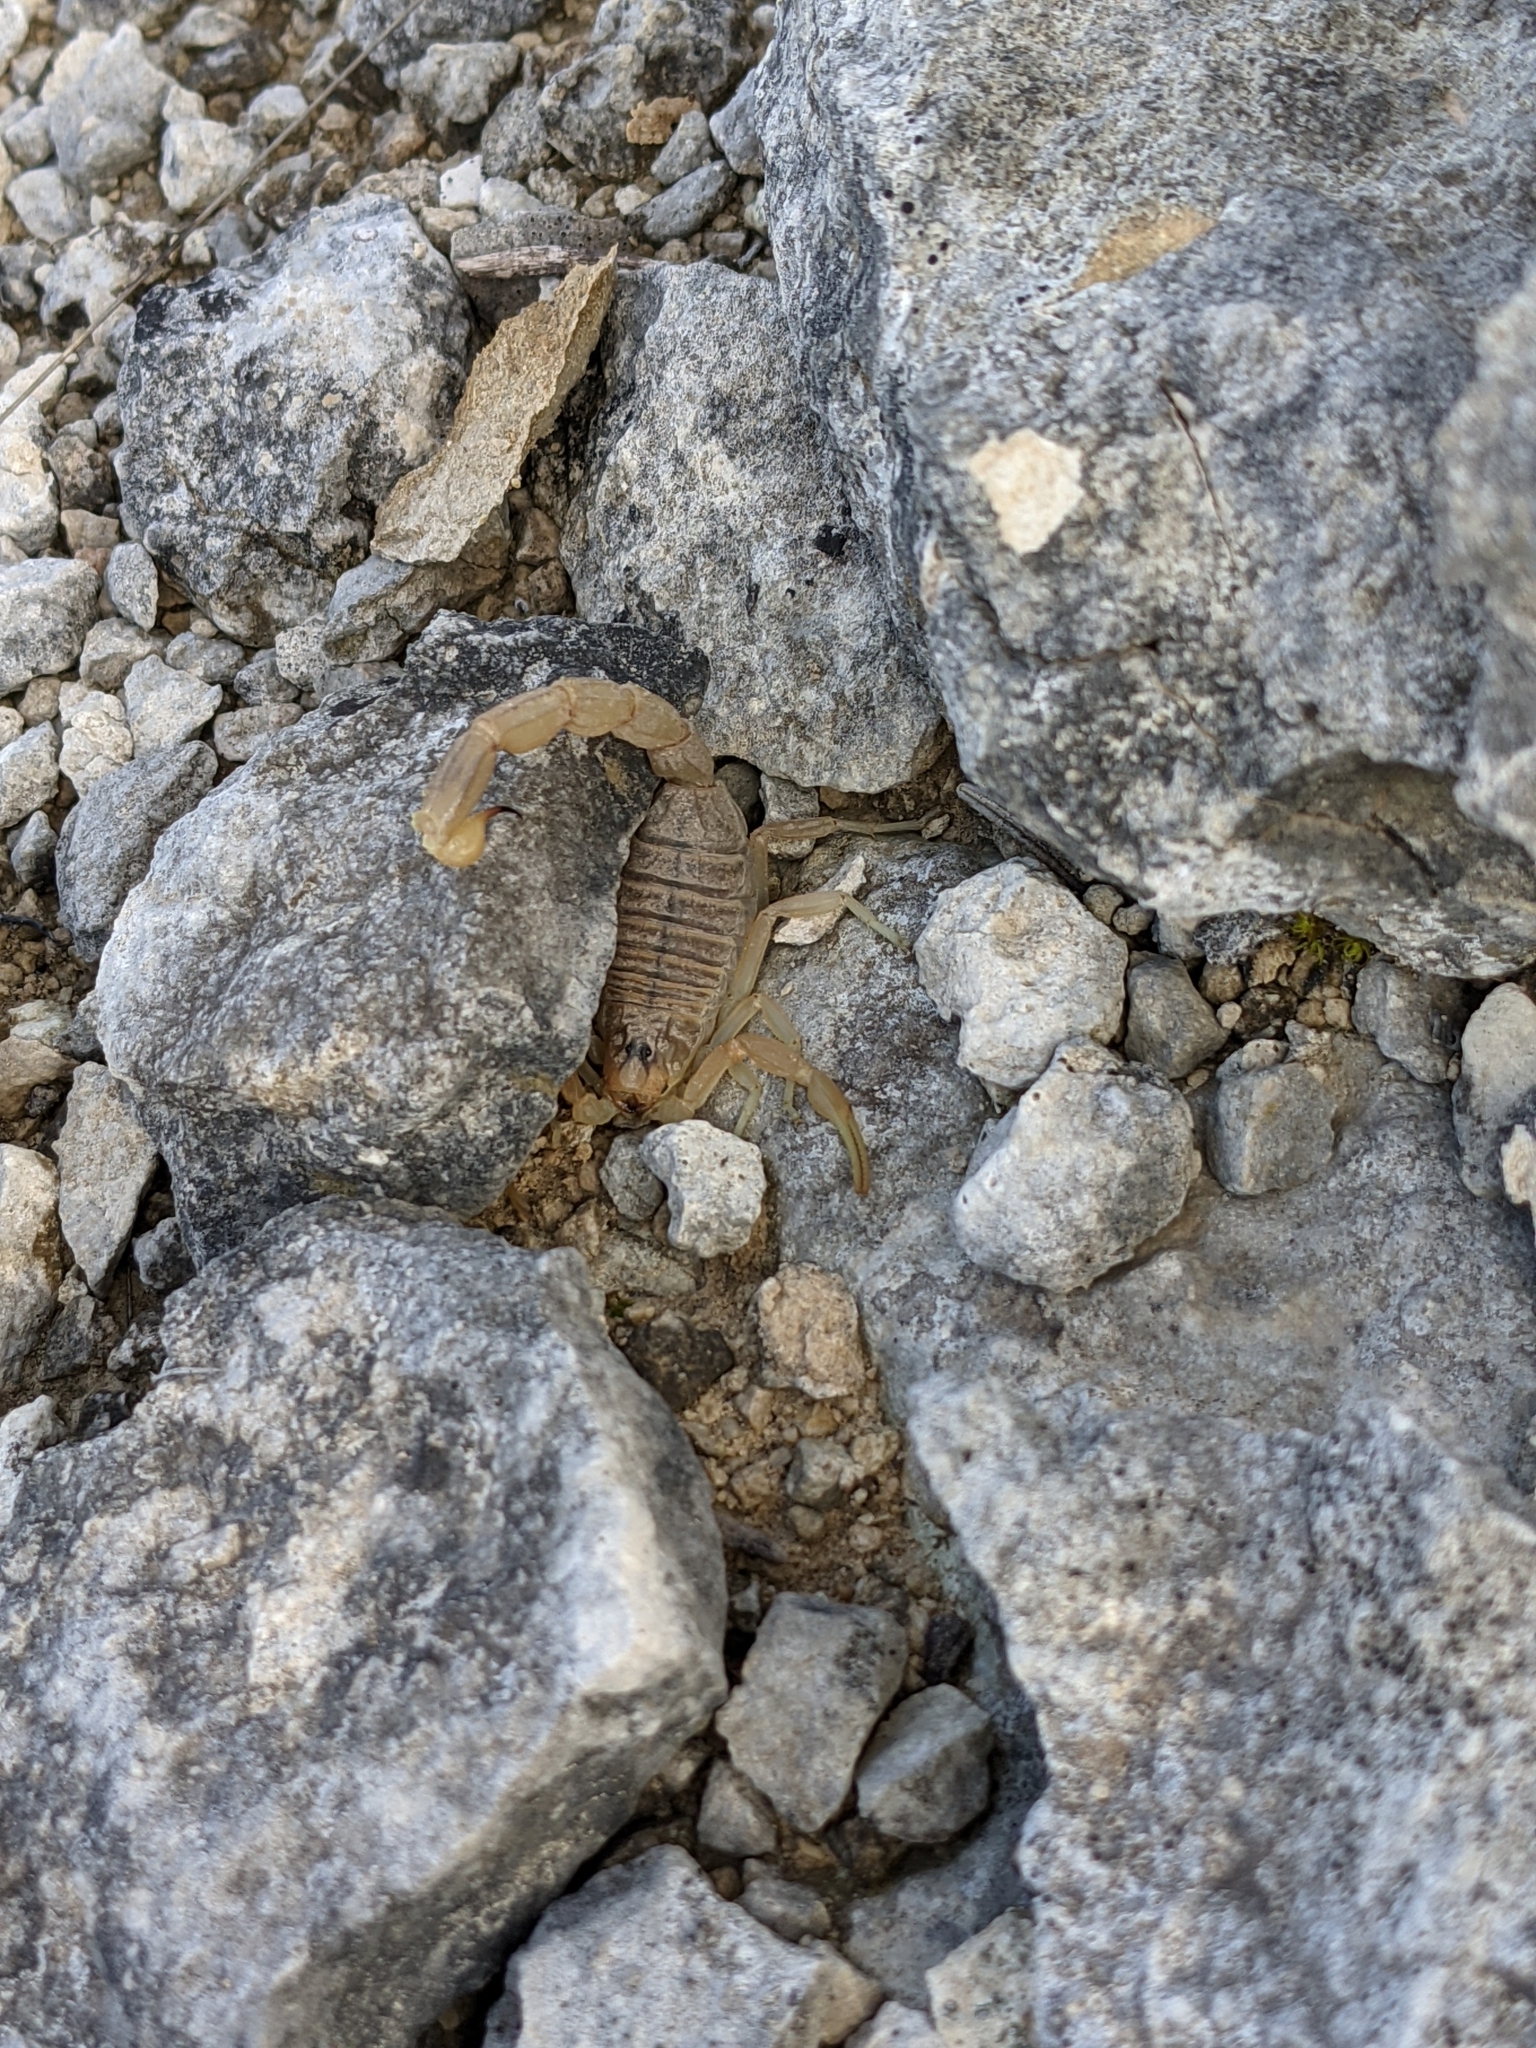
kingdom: Animalia
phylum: Arthropoda
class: Arachnida
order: Scorpiones
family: Buthidae
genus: Buthus
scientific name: Buthus occitanus
